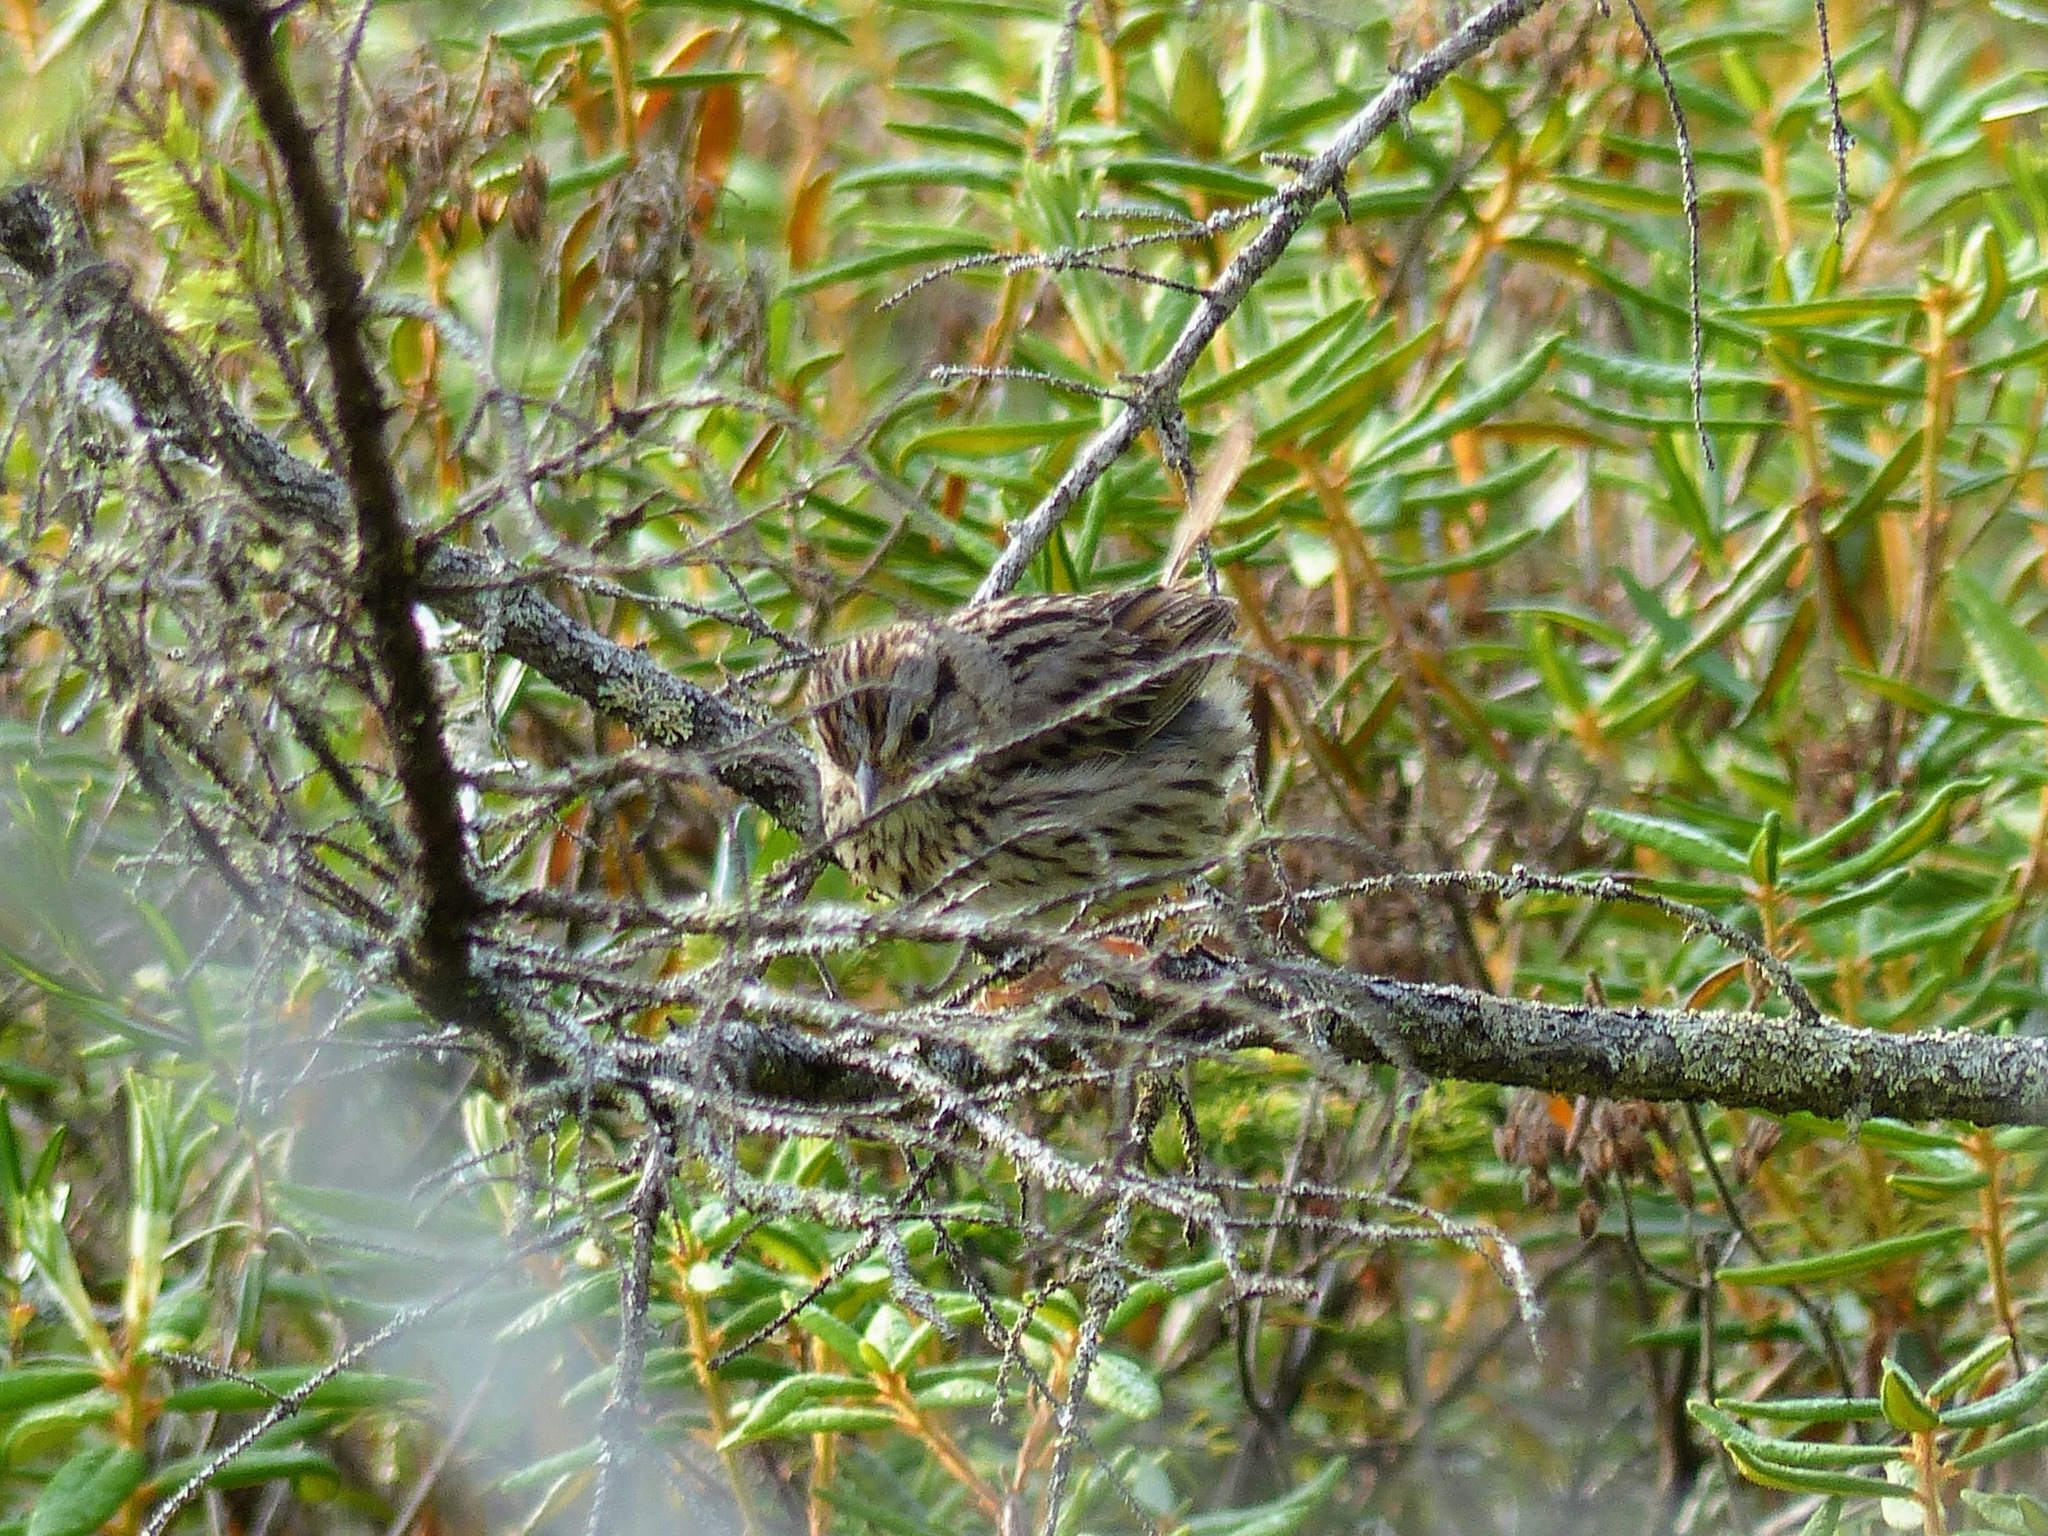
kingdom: Animalia
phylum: Chordata
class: Aves
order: Passeriformes
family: Passerellidae
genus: Melospiza
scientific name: Melospiza lincolnii
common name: Lincoln's sparrow
